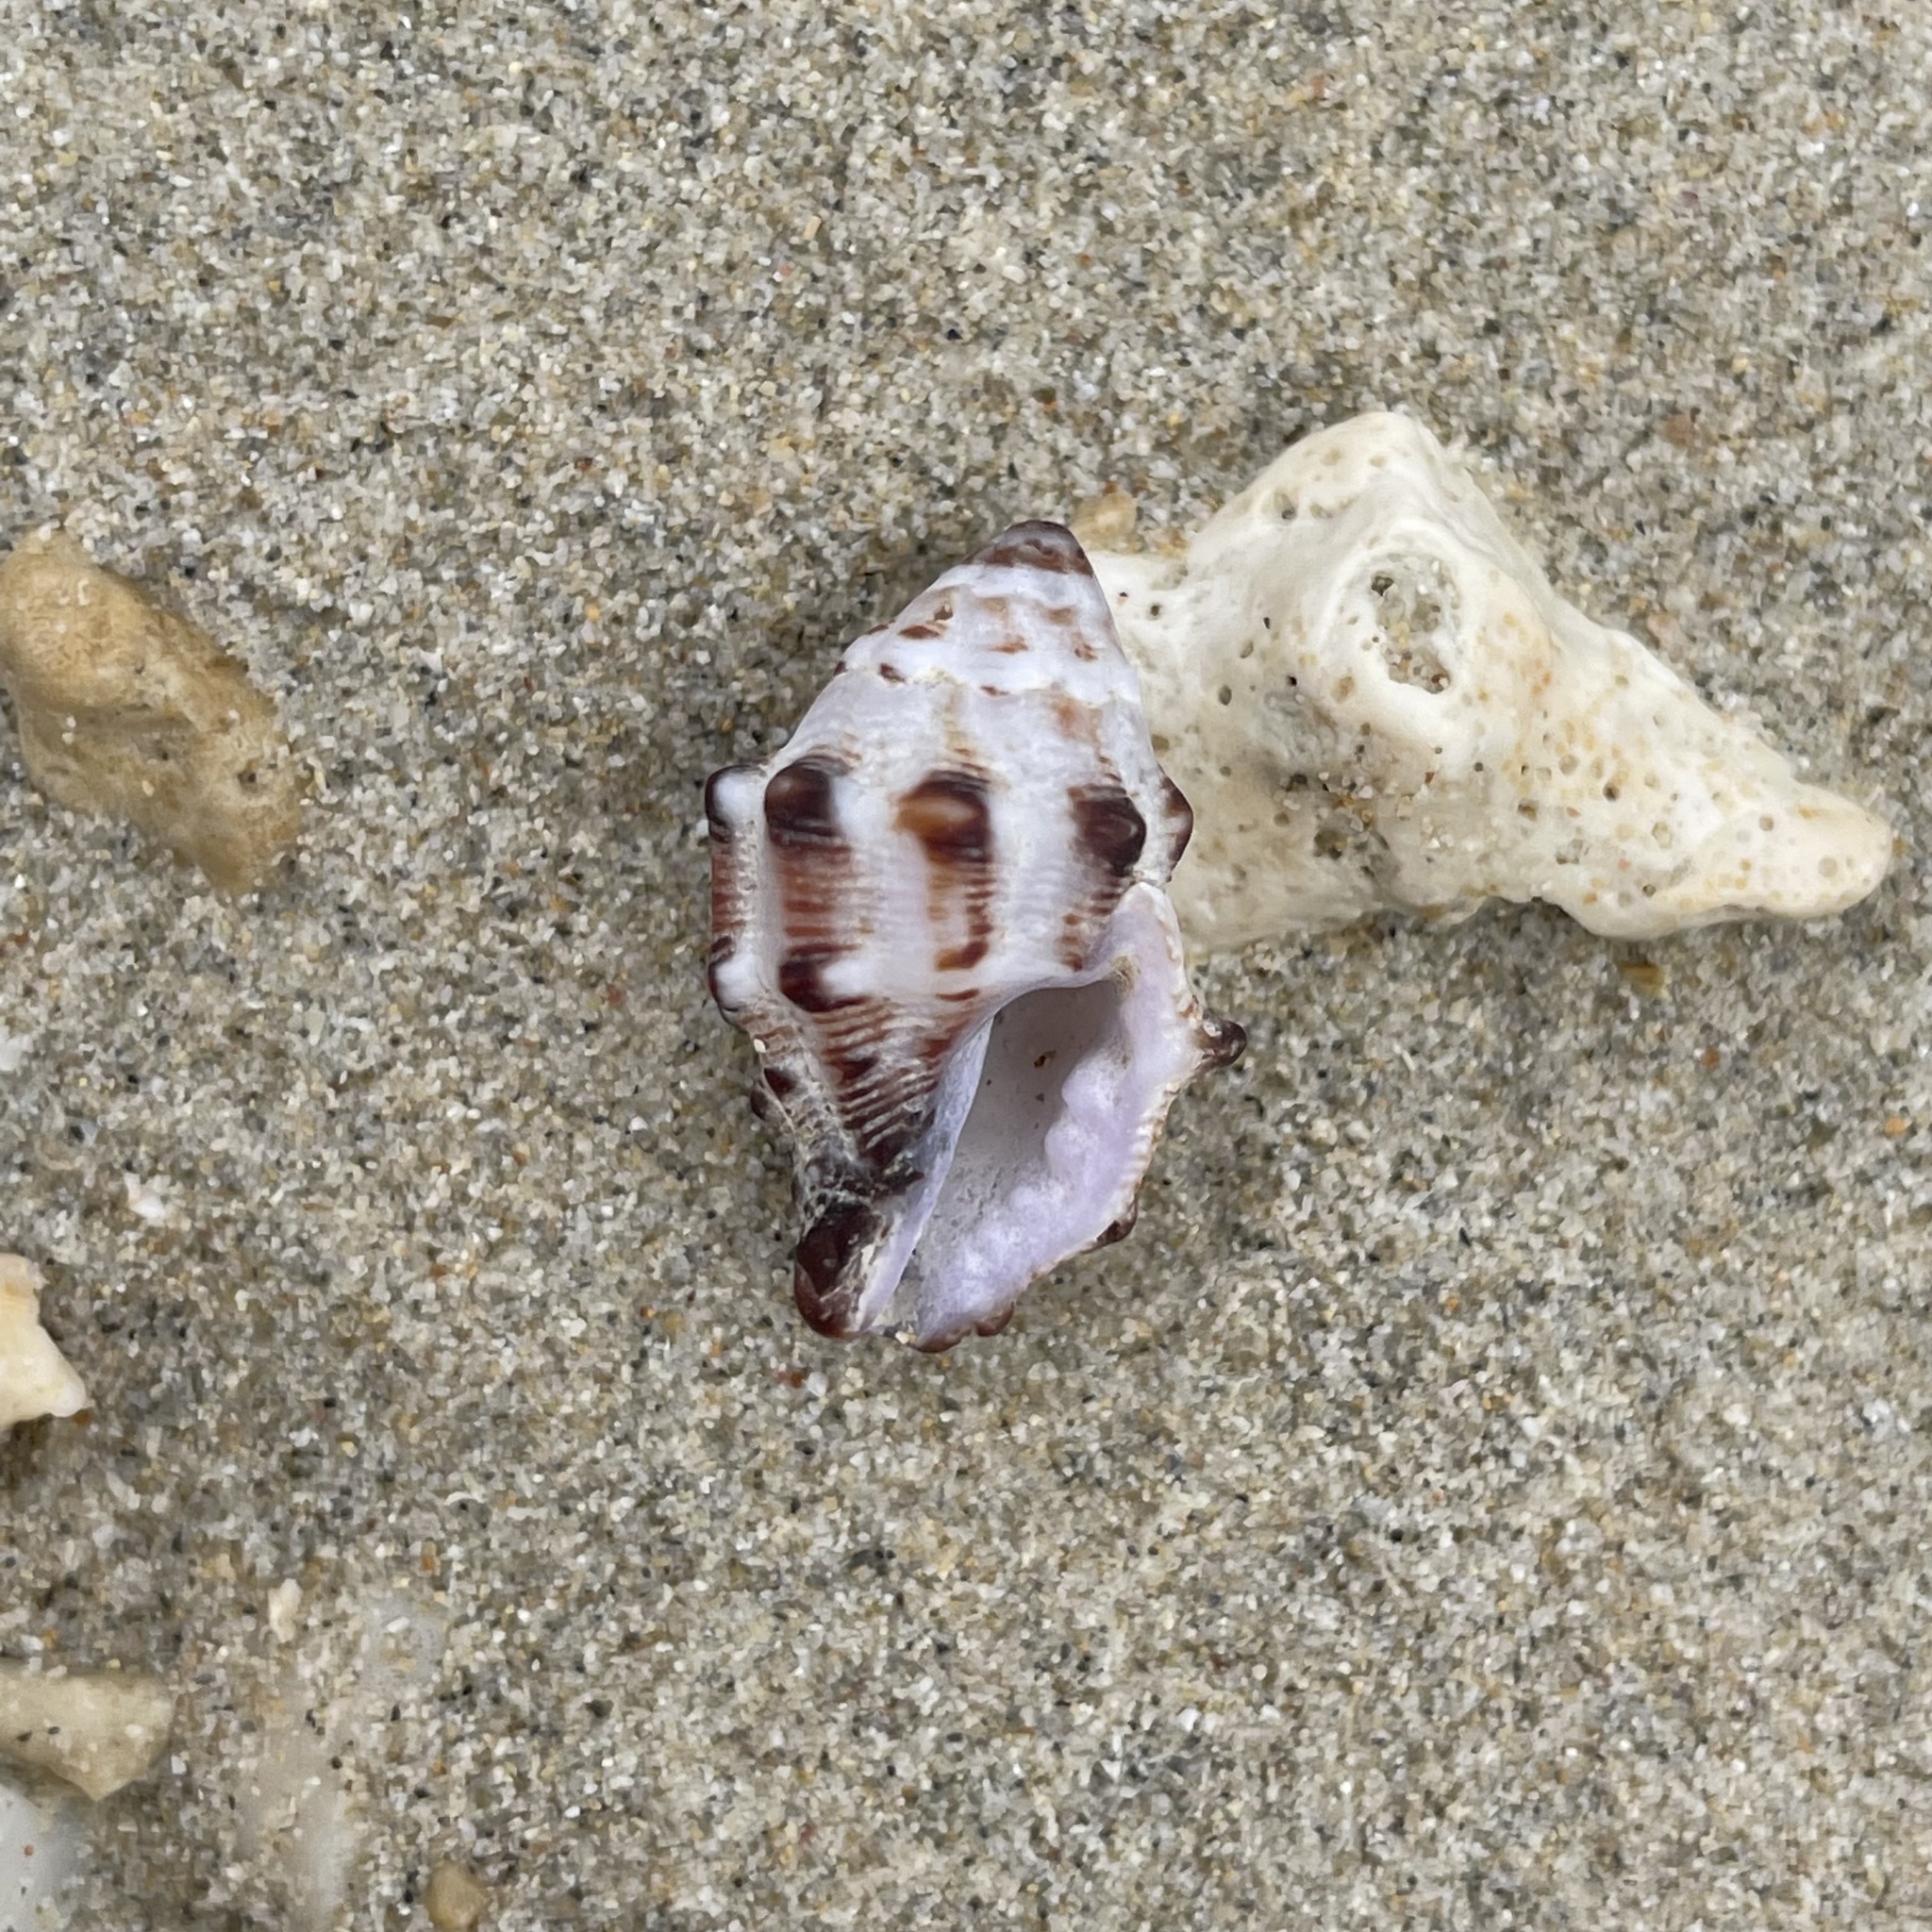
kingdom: Animalia
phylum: Mollusca
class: Gastropoda
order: Neogastropoda
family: Muricidae
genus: Morula
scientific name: Morula spinosa
